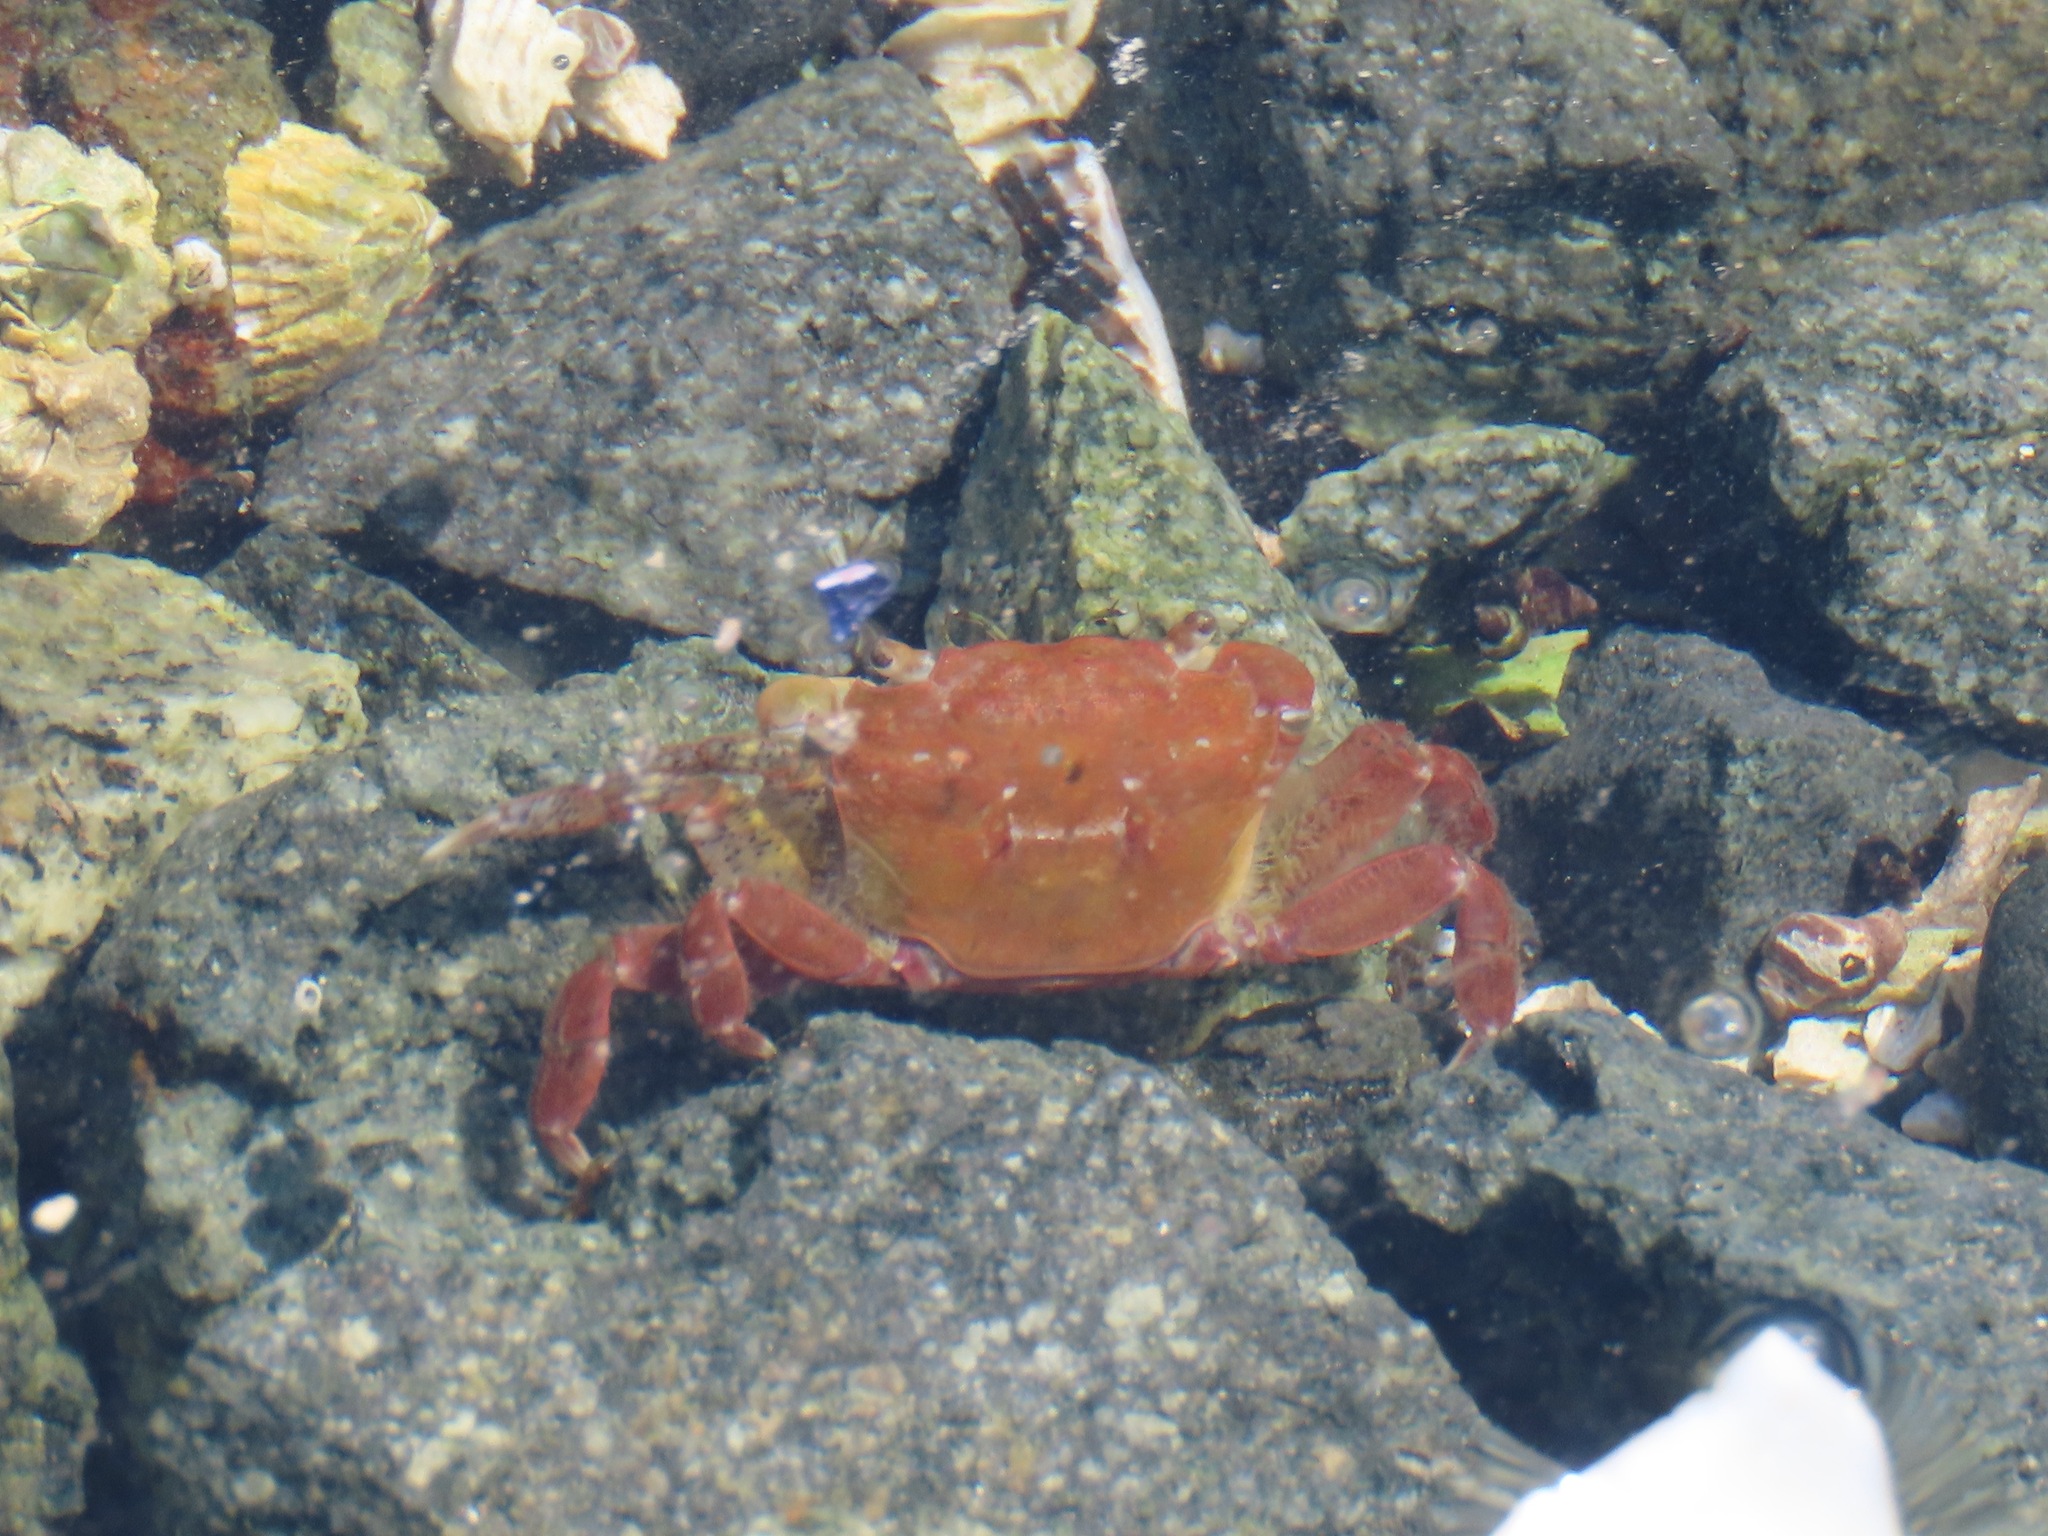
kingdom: Animalia
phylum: Arthropoda
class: Malacostraca
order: Decapoda
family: Varunidae
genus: Hemigrapsus
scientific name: Hemigrapsus oregonensis
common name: Yellow shore crab
